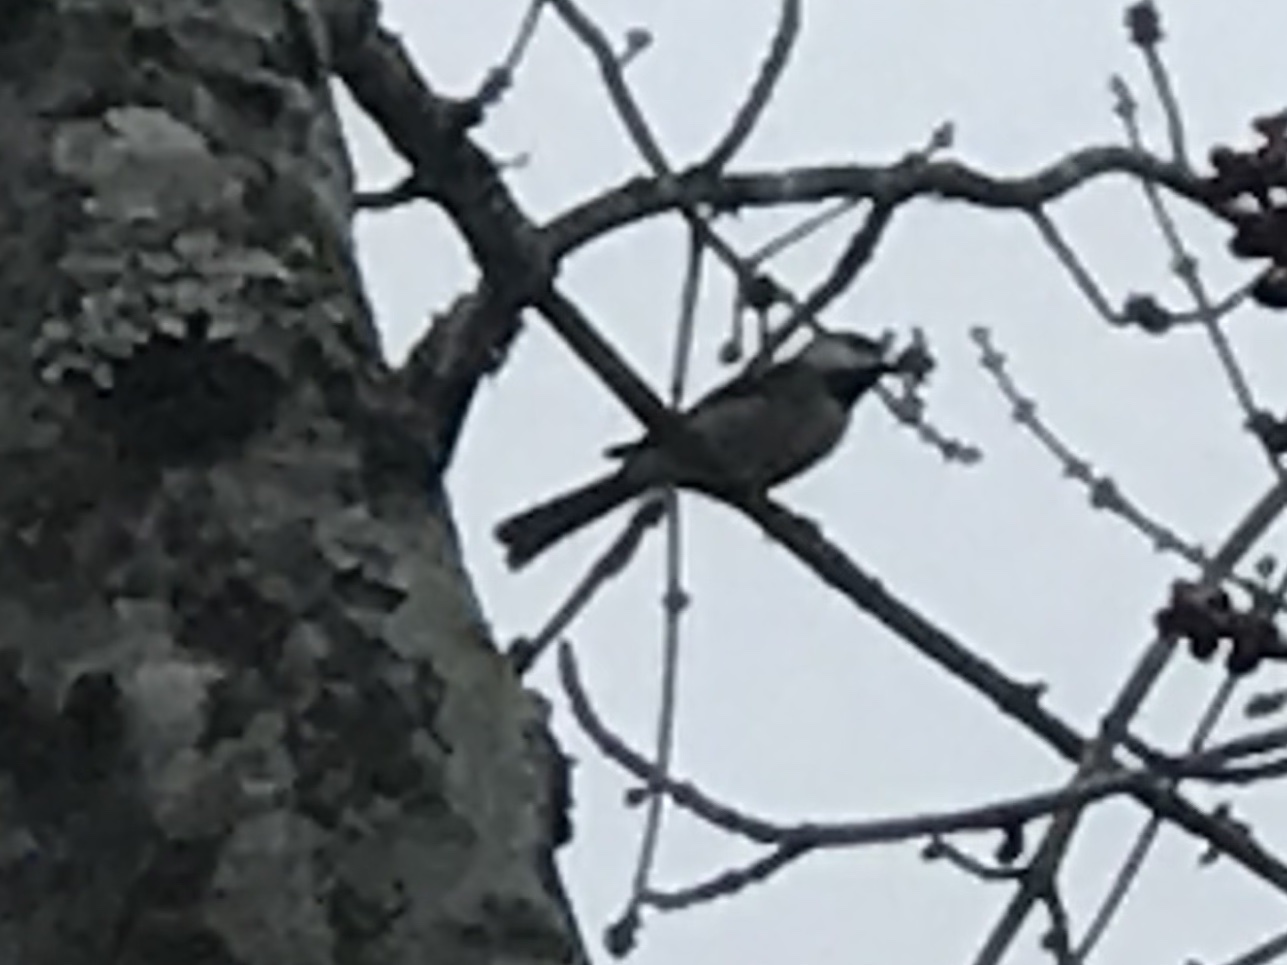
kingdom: Animalia
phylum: Chordata
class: Aves
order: Passeriformes
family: Paridae
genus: Poecile
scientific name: Poecile carolinensis
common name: Carolina chickadee
